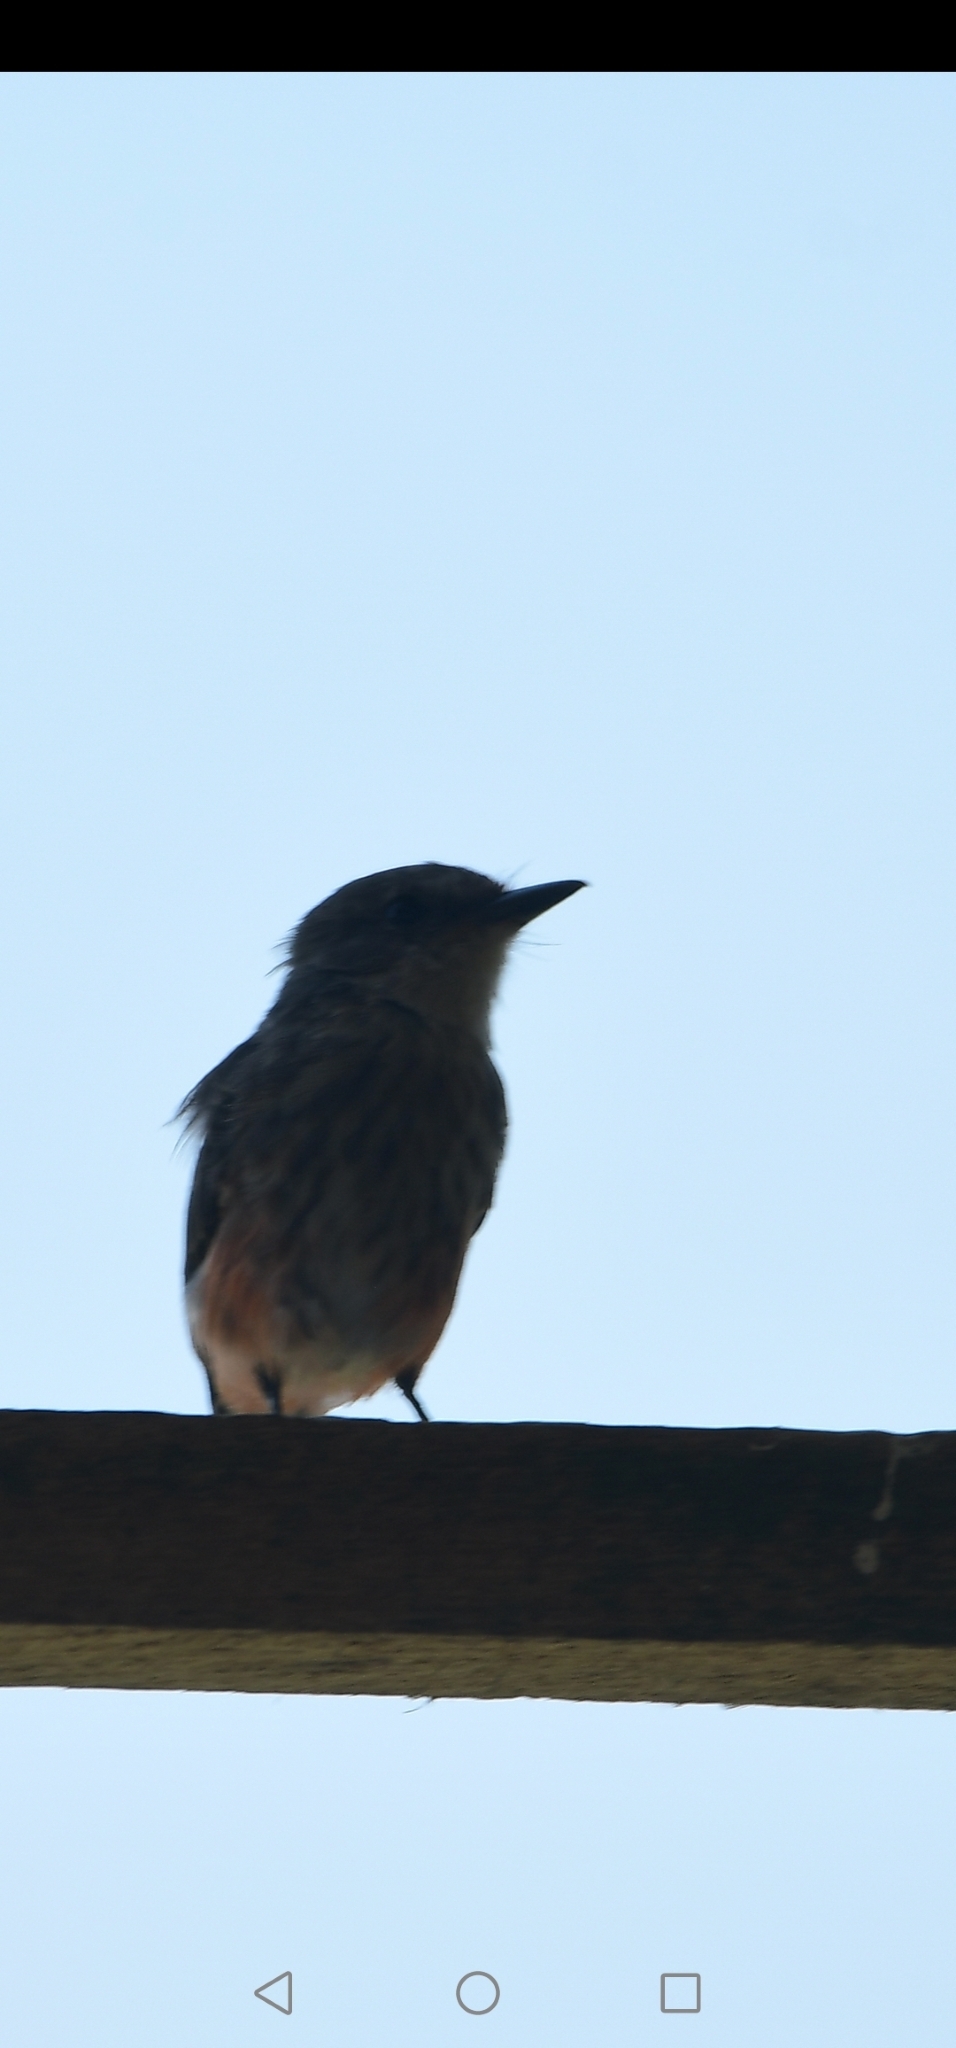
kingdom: Animalia
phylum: Chordata
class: Aves
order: Passeriformes
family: Tyrannidae
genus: Pyrocephalus
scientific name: Pyrocephalus rubinus
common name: Vermilion flycatcher
